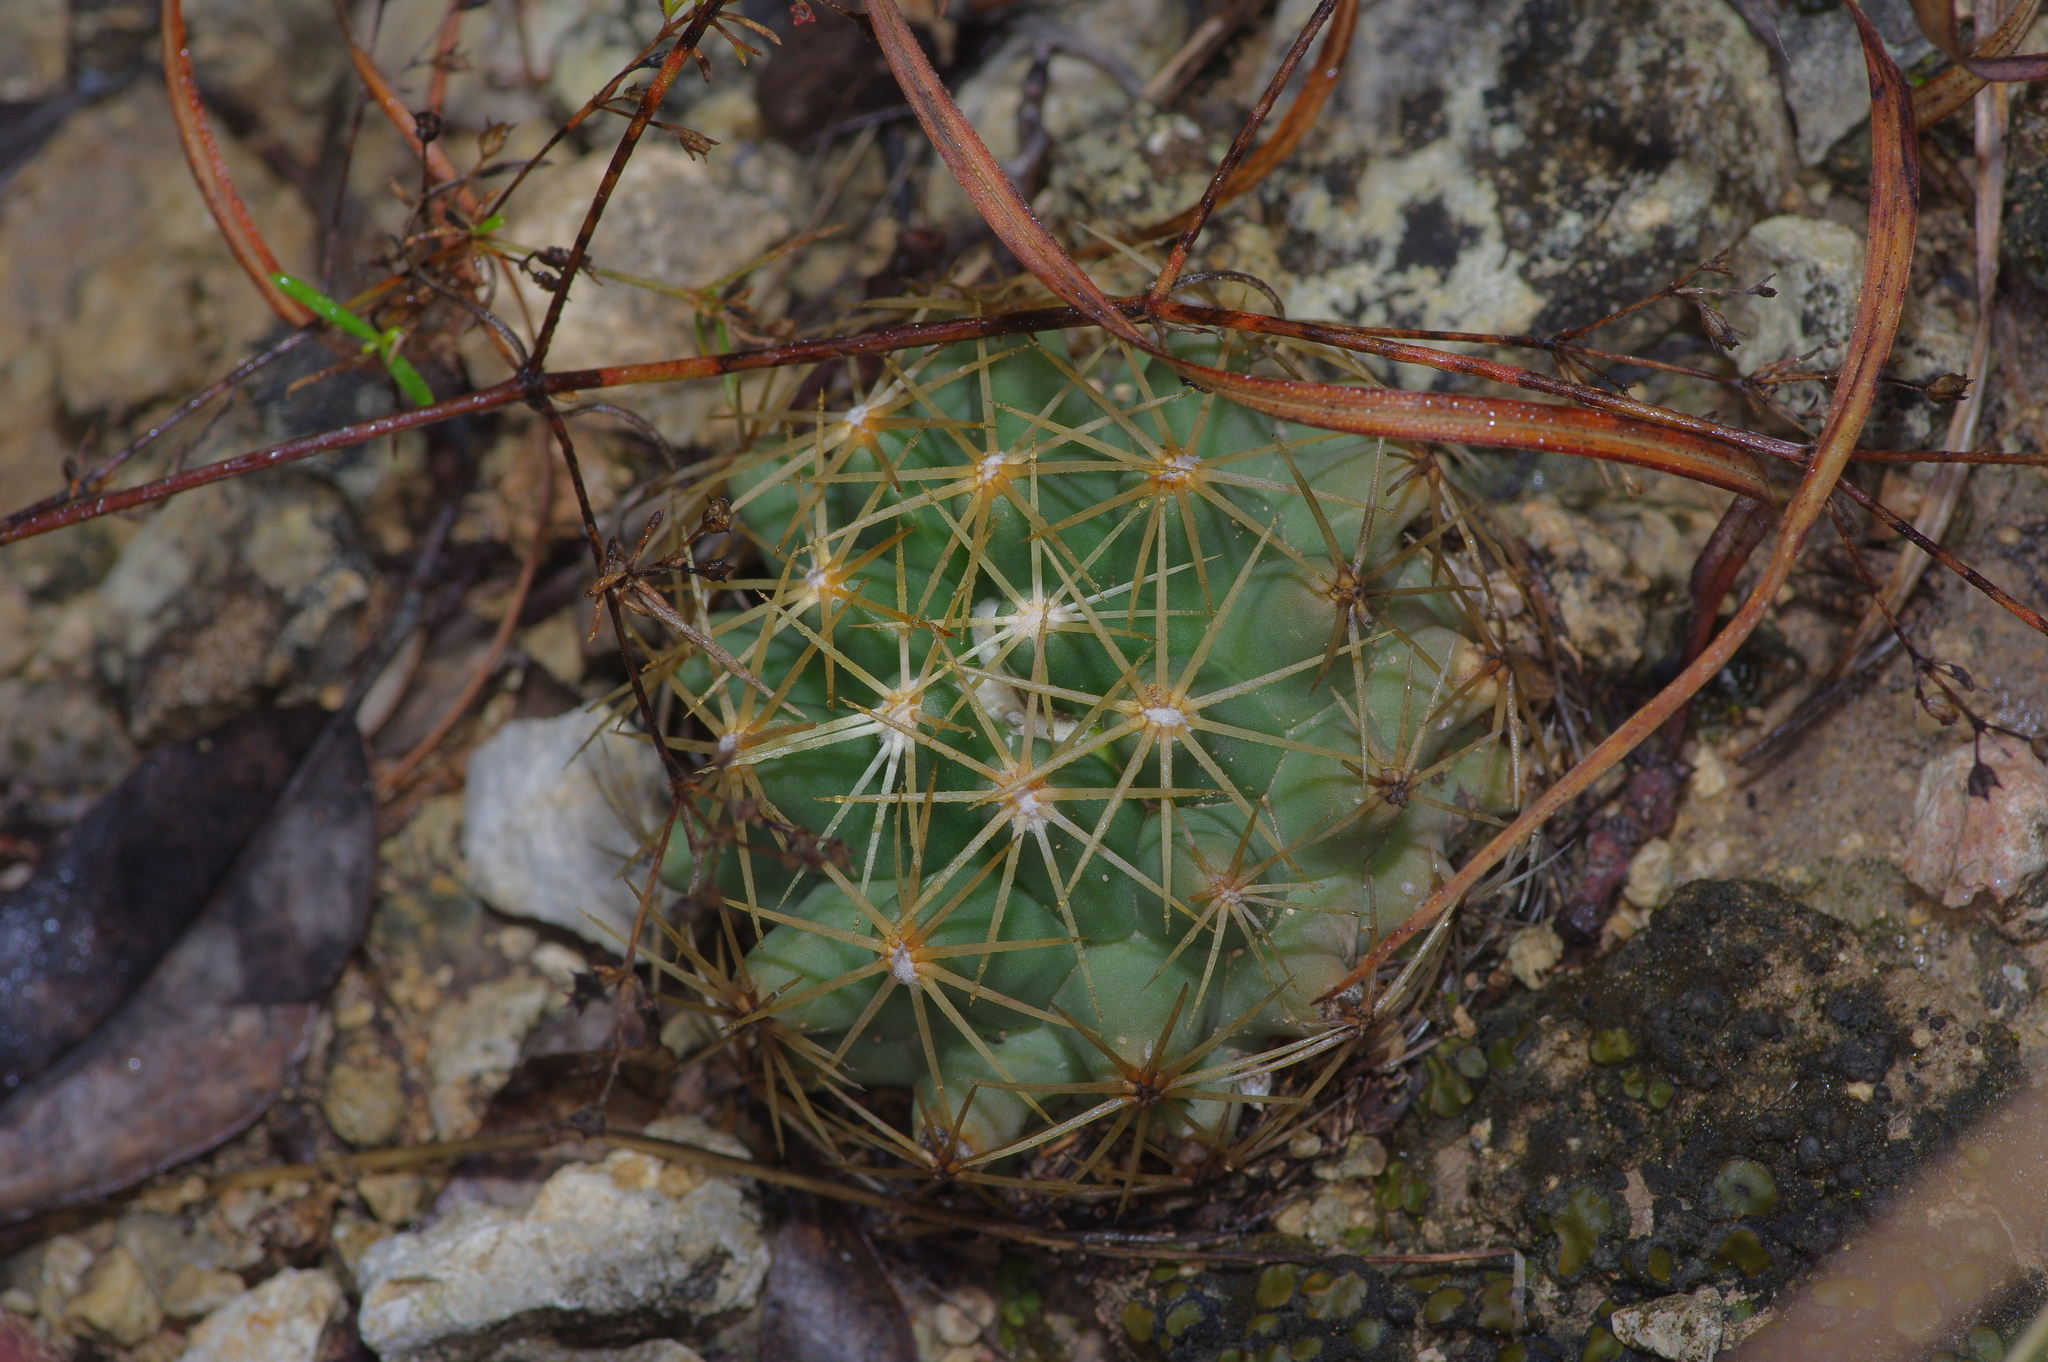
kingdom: Plantae
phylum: Tracheophyta
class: Magnoliopsida
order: Caryophyllales
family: Cactaceae
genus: Coryphantha
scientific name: Coryphantha sulcata
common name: Finger cactus
